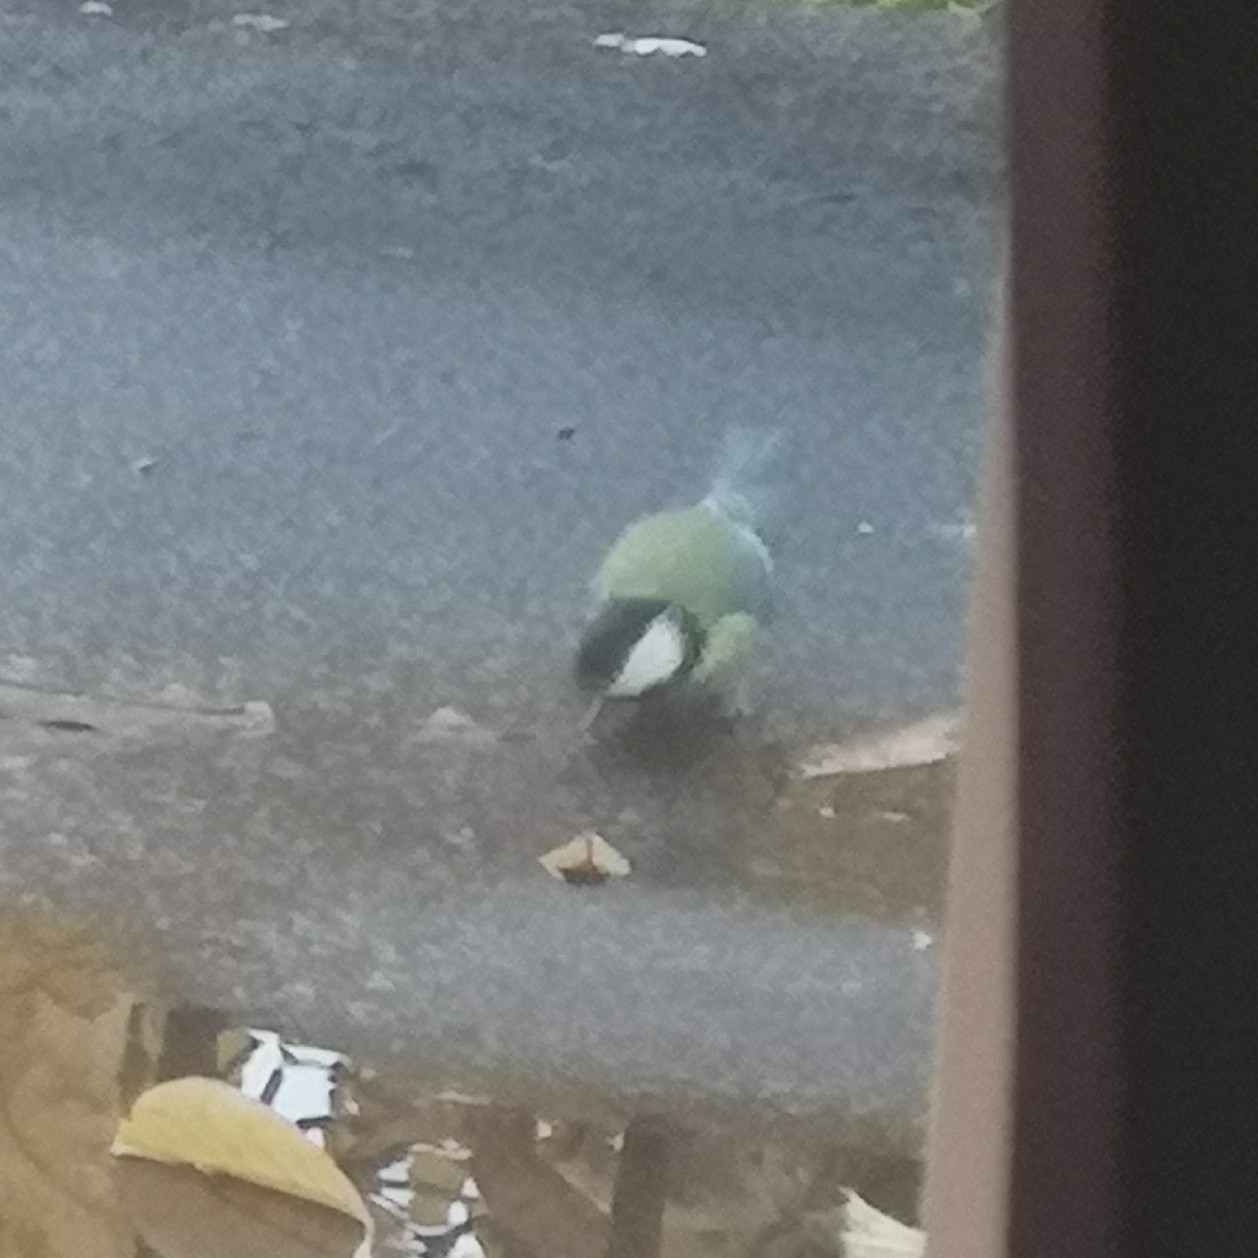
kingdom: Animalia
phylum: Chordata
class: Aves
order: Passeriformes
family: Paridae
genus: Parus
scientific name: Parus major
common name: Great tit
